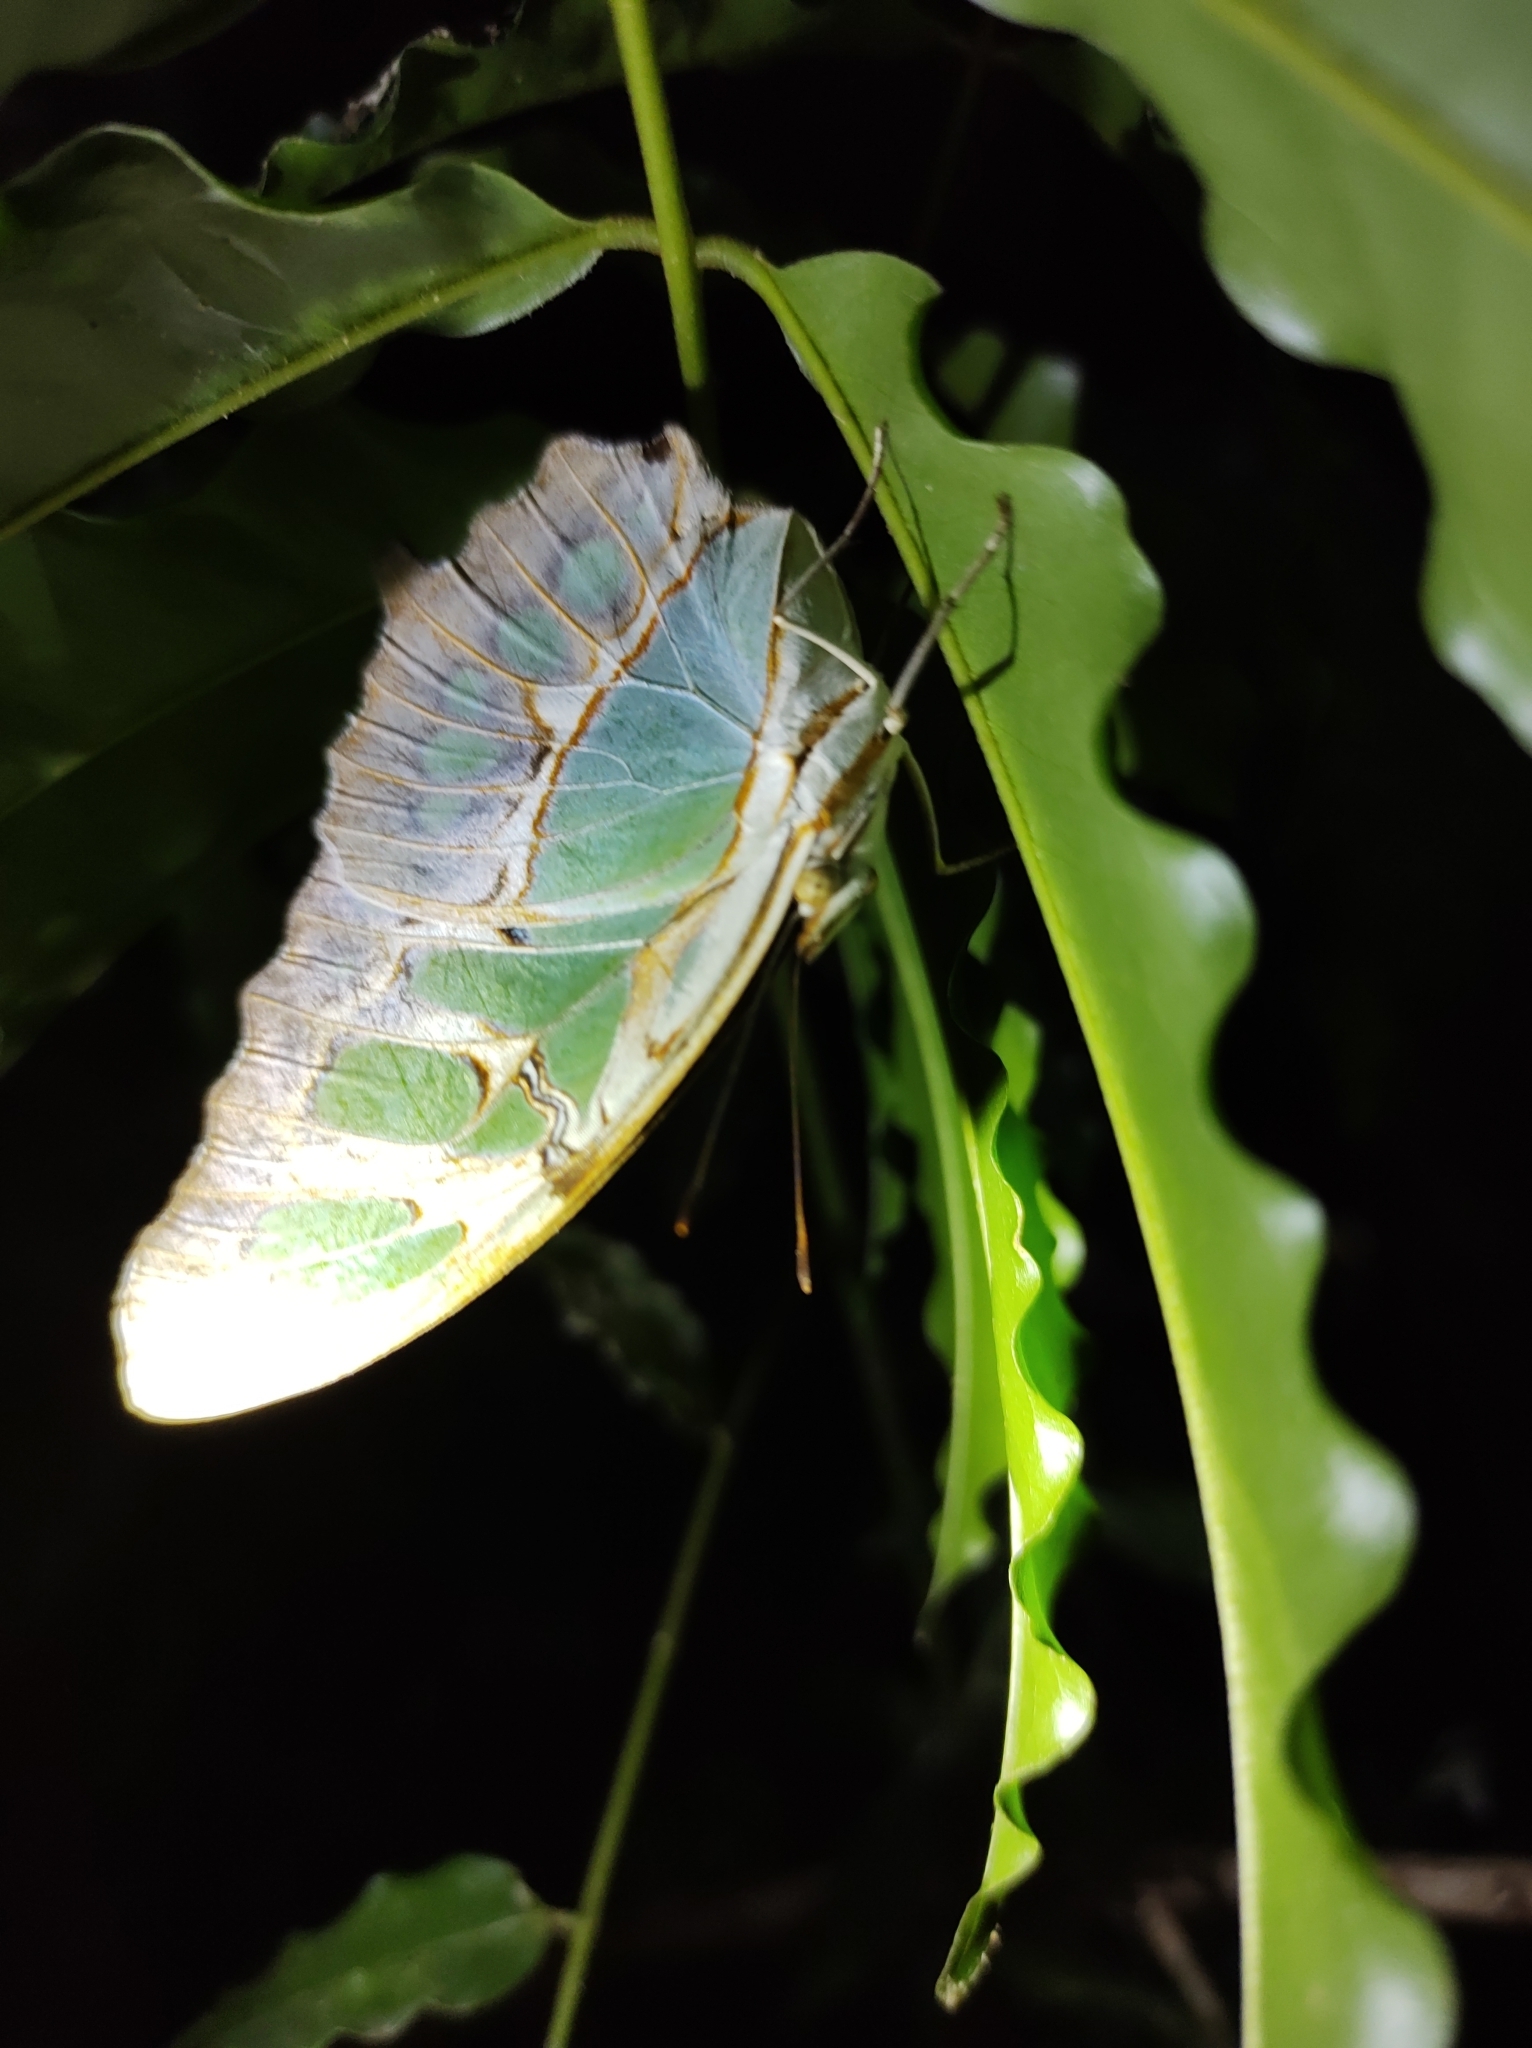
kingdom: Animalia
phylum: Arthropoda
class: Insecta
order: Lepidoptera
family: Nymphalidae
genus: Siproeta
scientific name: Siproeta stelenes
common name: Malachite
